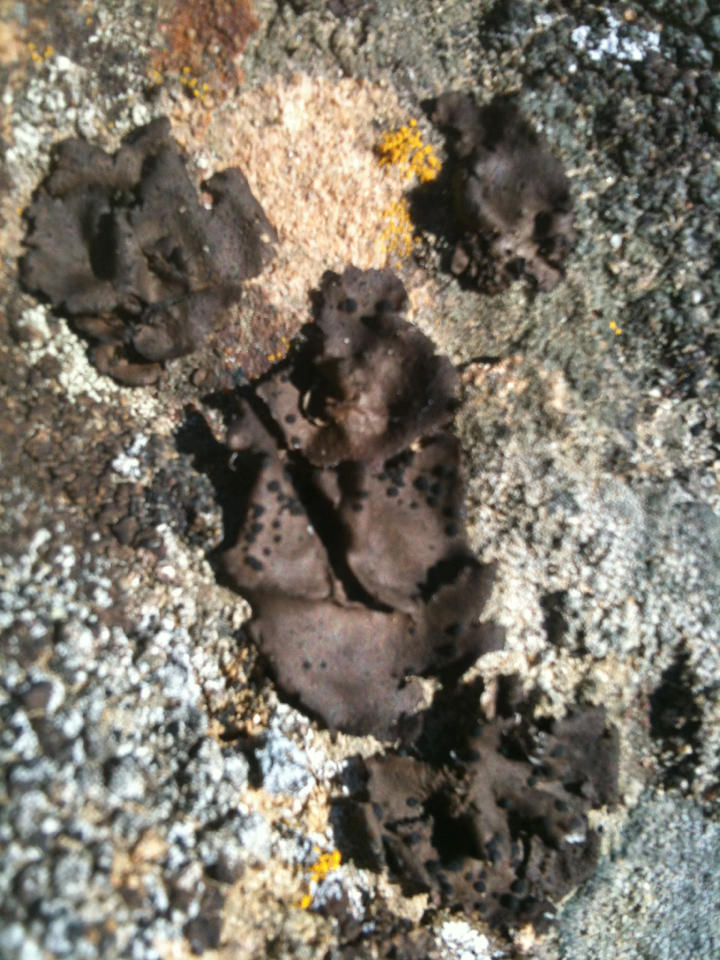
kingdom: Fungi
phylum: Ascomycota
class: Lecanoromycetes
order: Umbilicariales
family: Umbilicariaceae
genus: Umbilicaria
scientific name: Umbilicaria phaea
